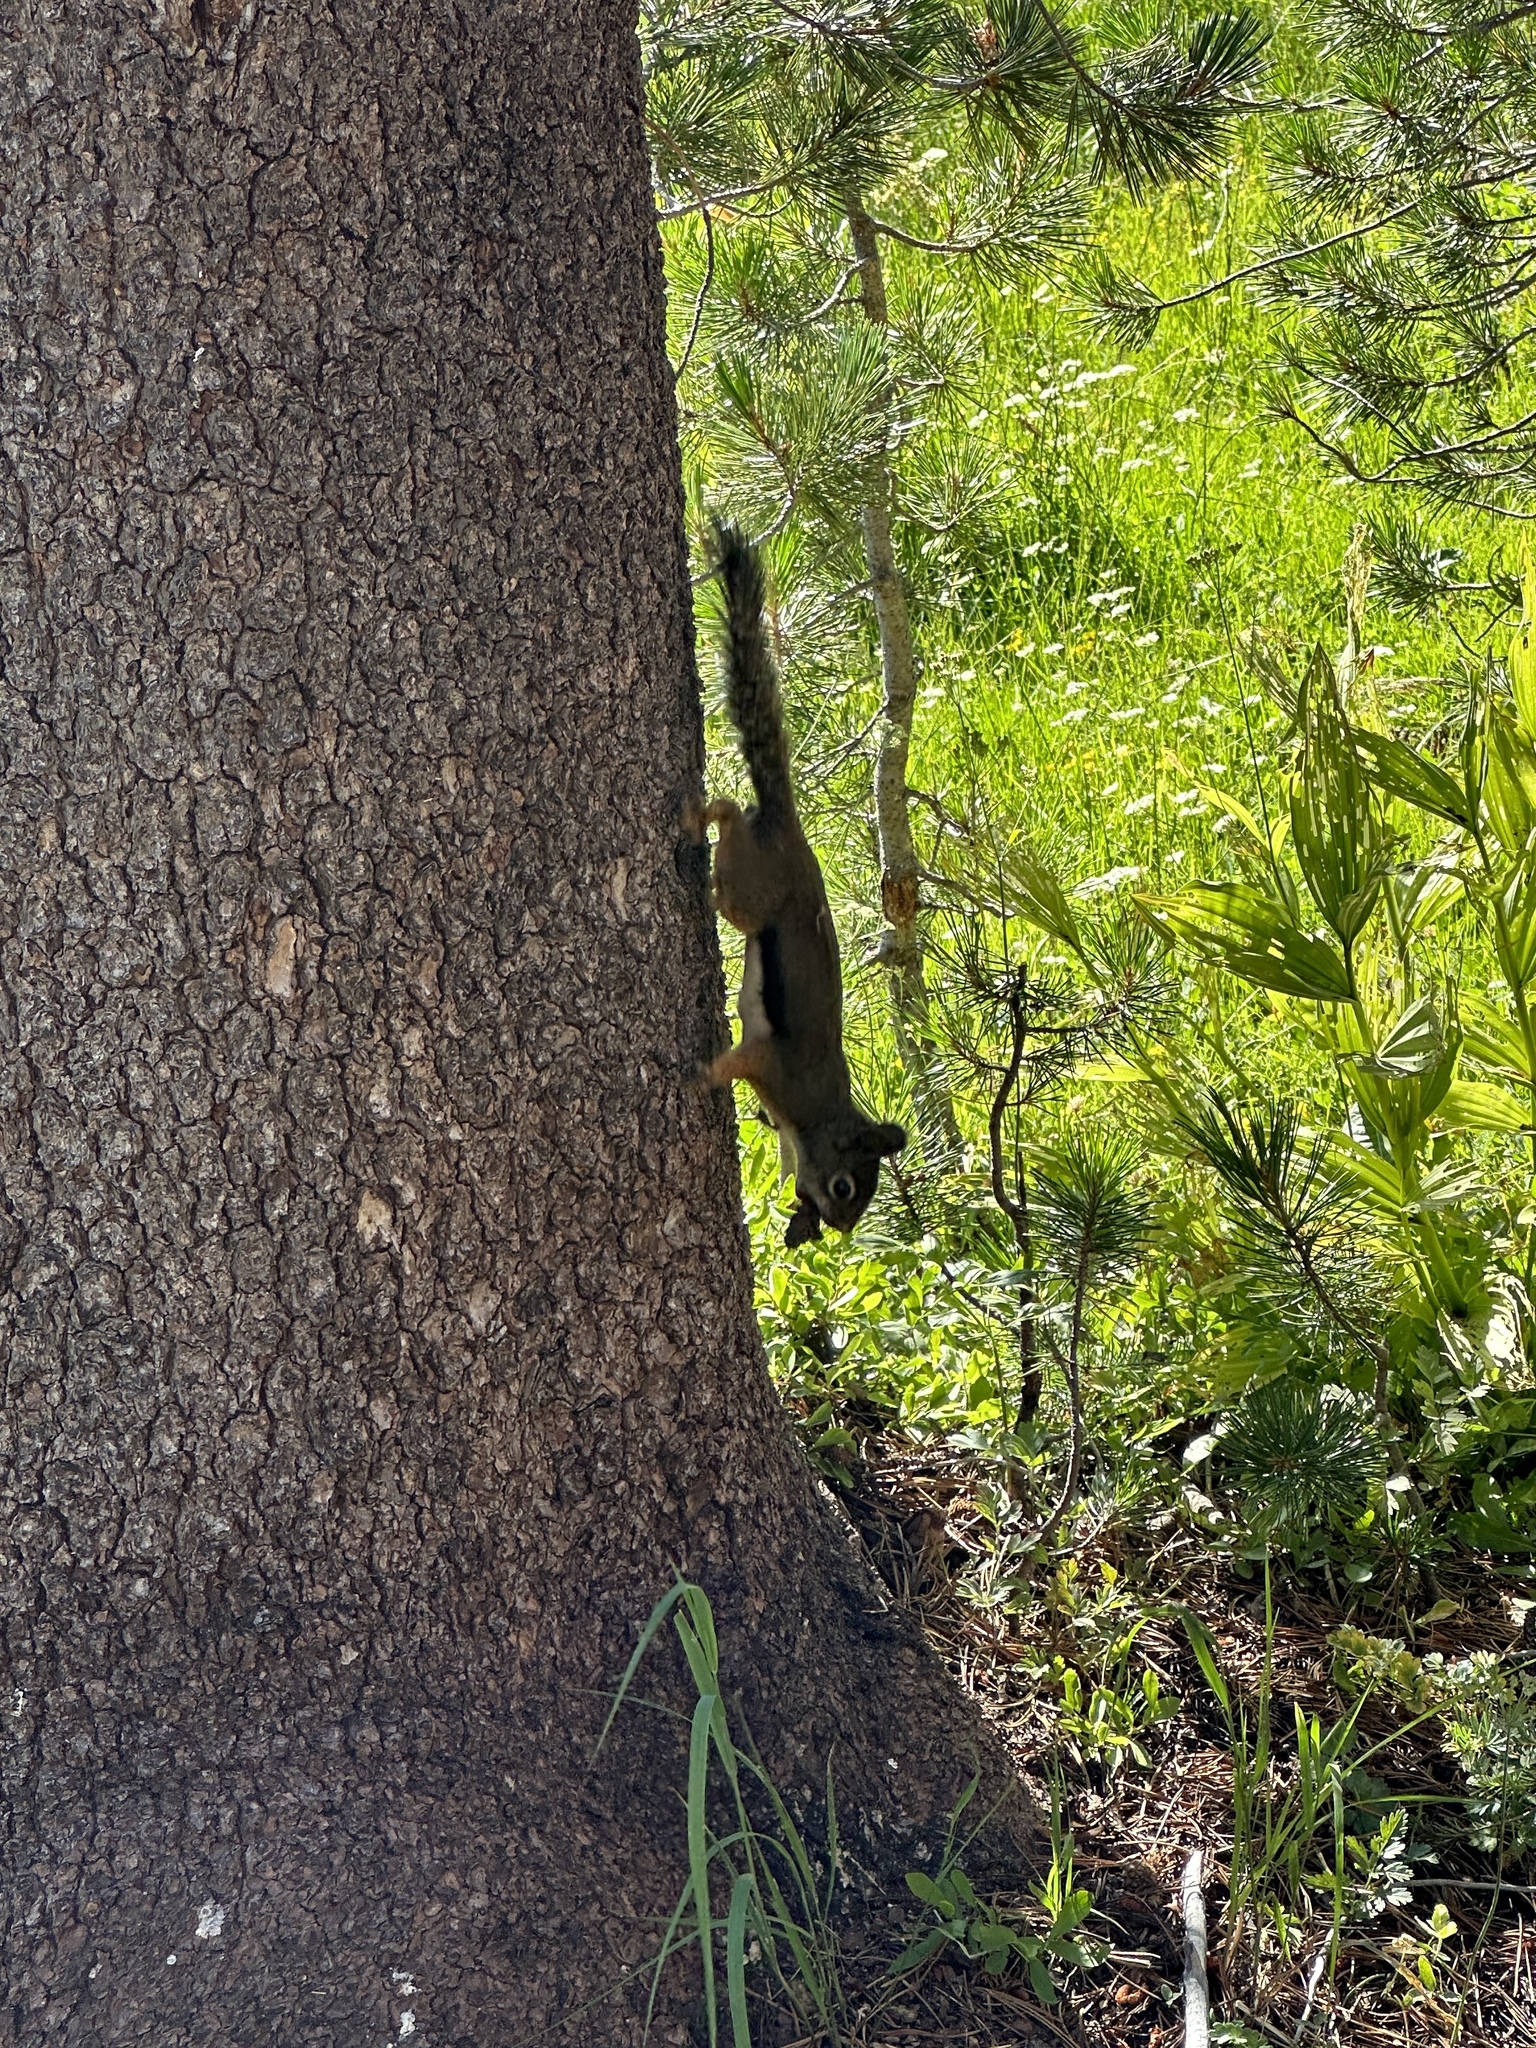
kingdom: Animalia
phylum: Chordata
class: Mammalia
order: Rodentia
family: Sciuridae
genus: Tamiasciurus
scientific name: Tamiasciurus douglasii
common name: Douglas's squirrel
